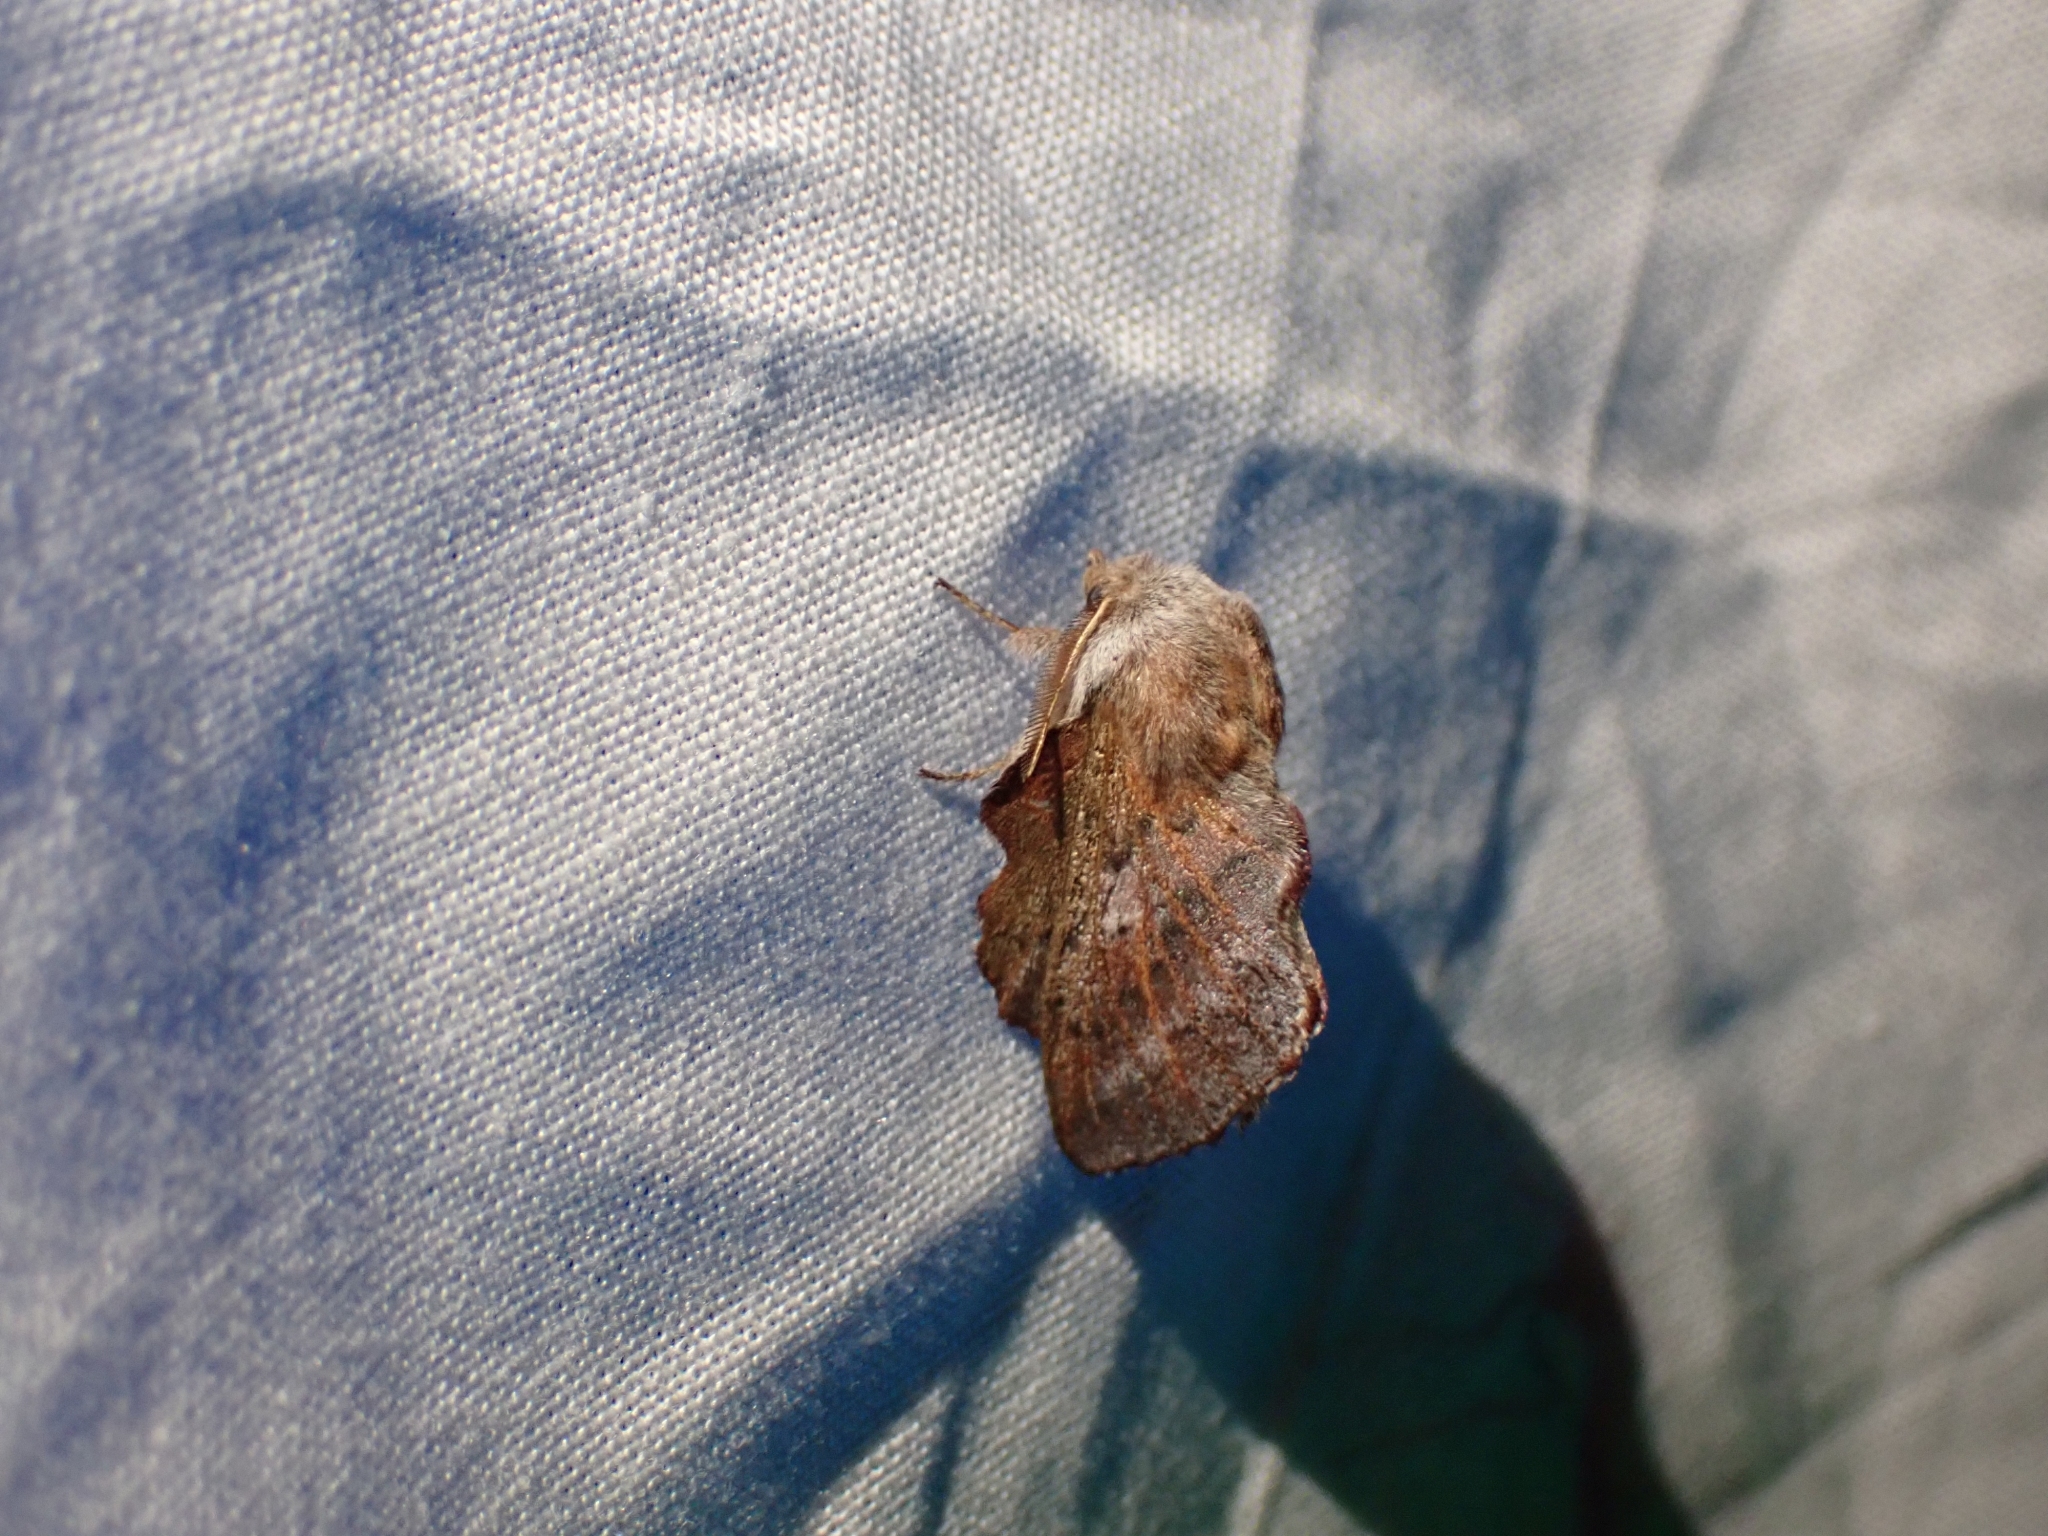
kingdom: Animalia
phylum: Arthropoda
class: Insecta
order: Lepidoptera
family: Lasiocampidae
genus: Phyllodesma
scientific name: Phyllodesma americana
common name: American lappet moth
